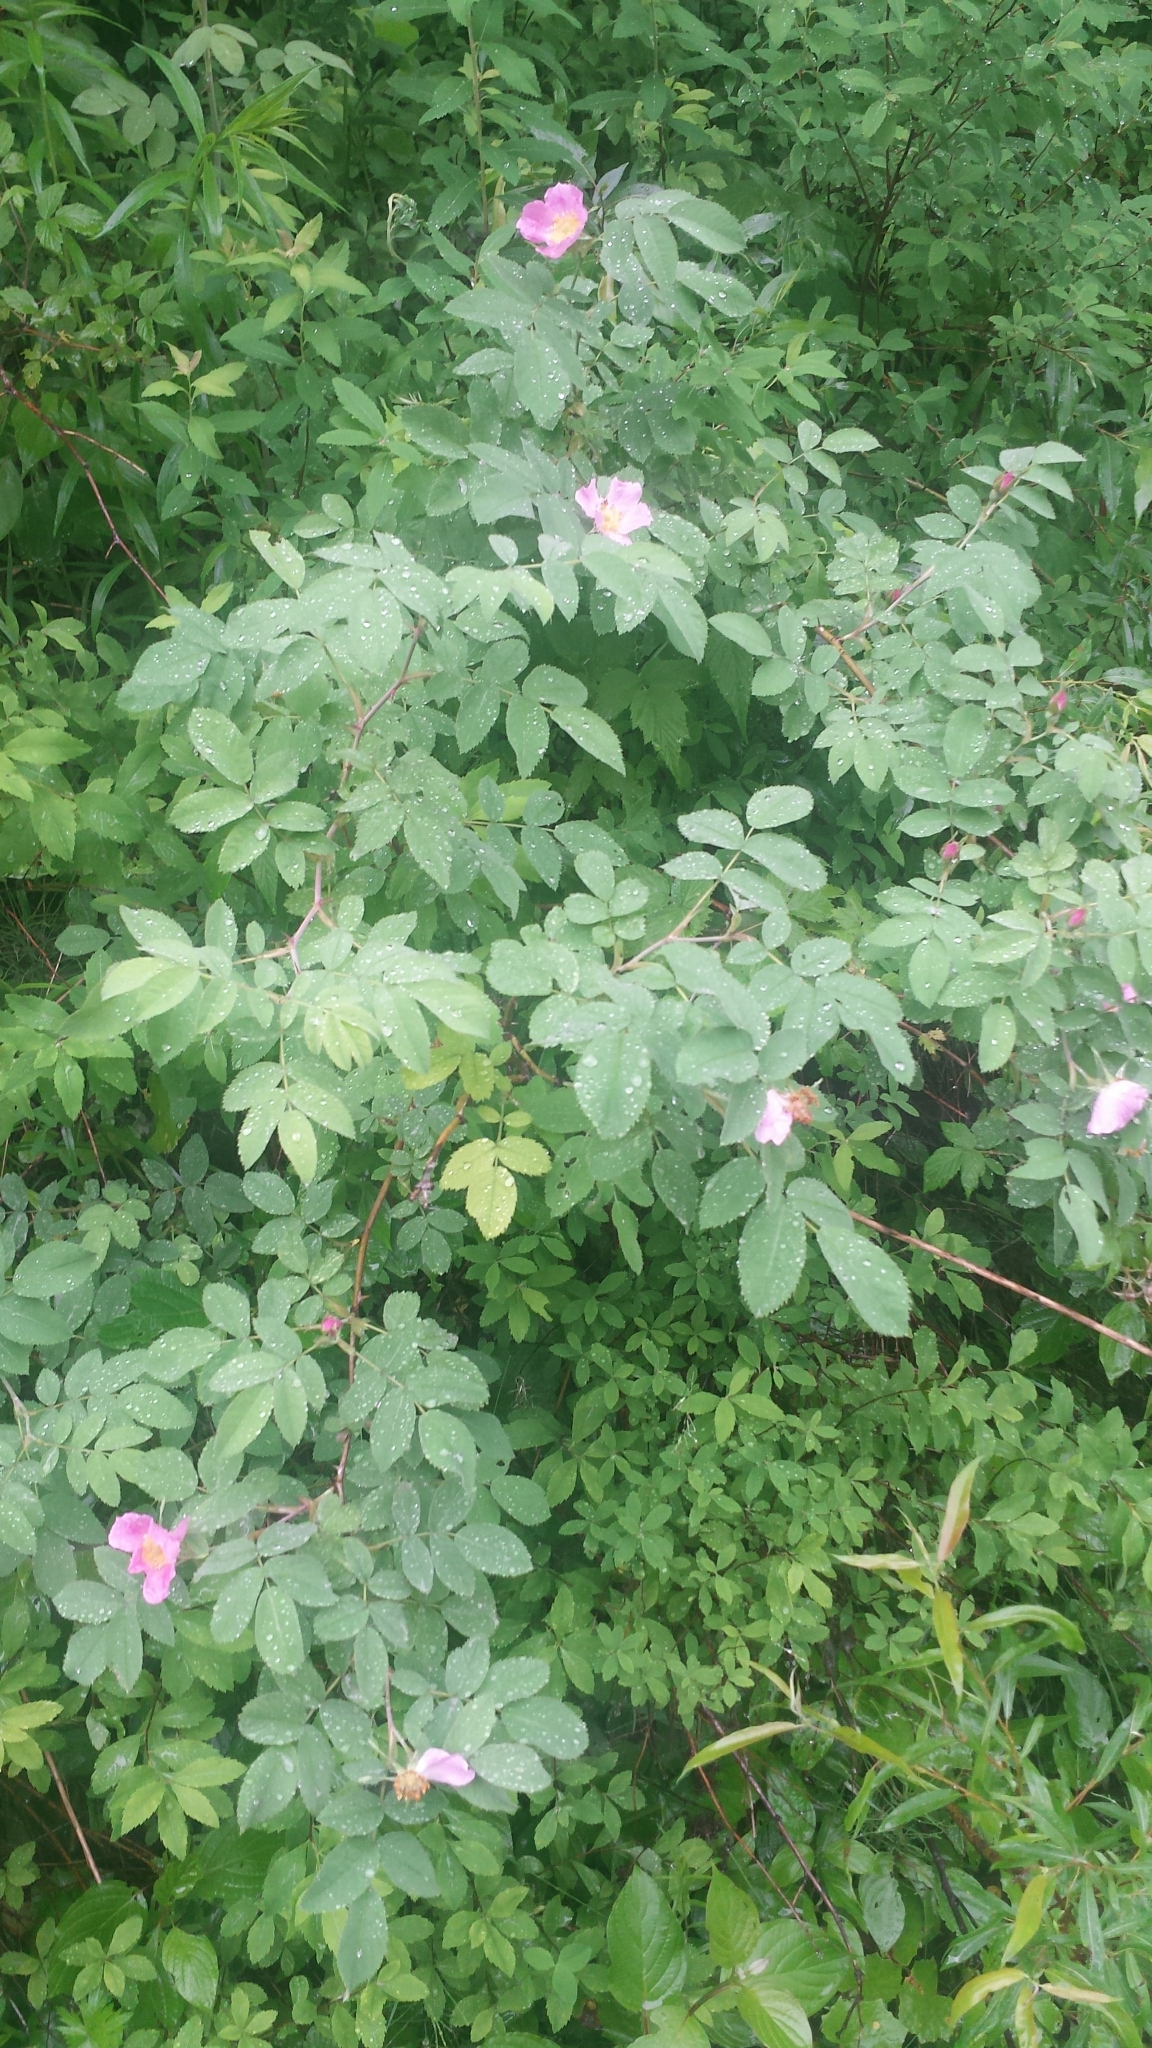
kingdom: Plantae
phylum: Tracheophyta
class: Magnoliopsida
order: Rosales
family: Rosaceae
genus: Rosa
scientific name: Rosa sherardii
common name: Sherard's downy rose
